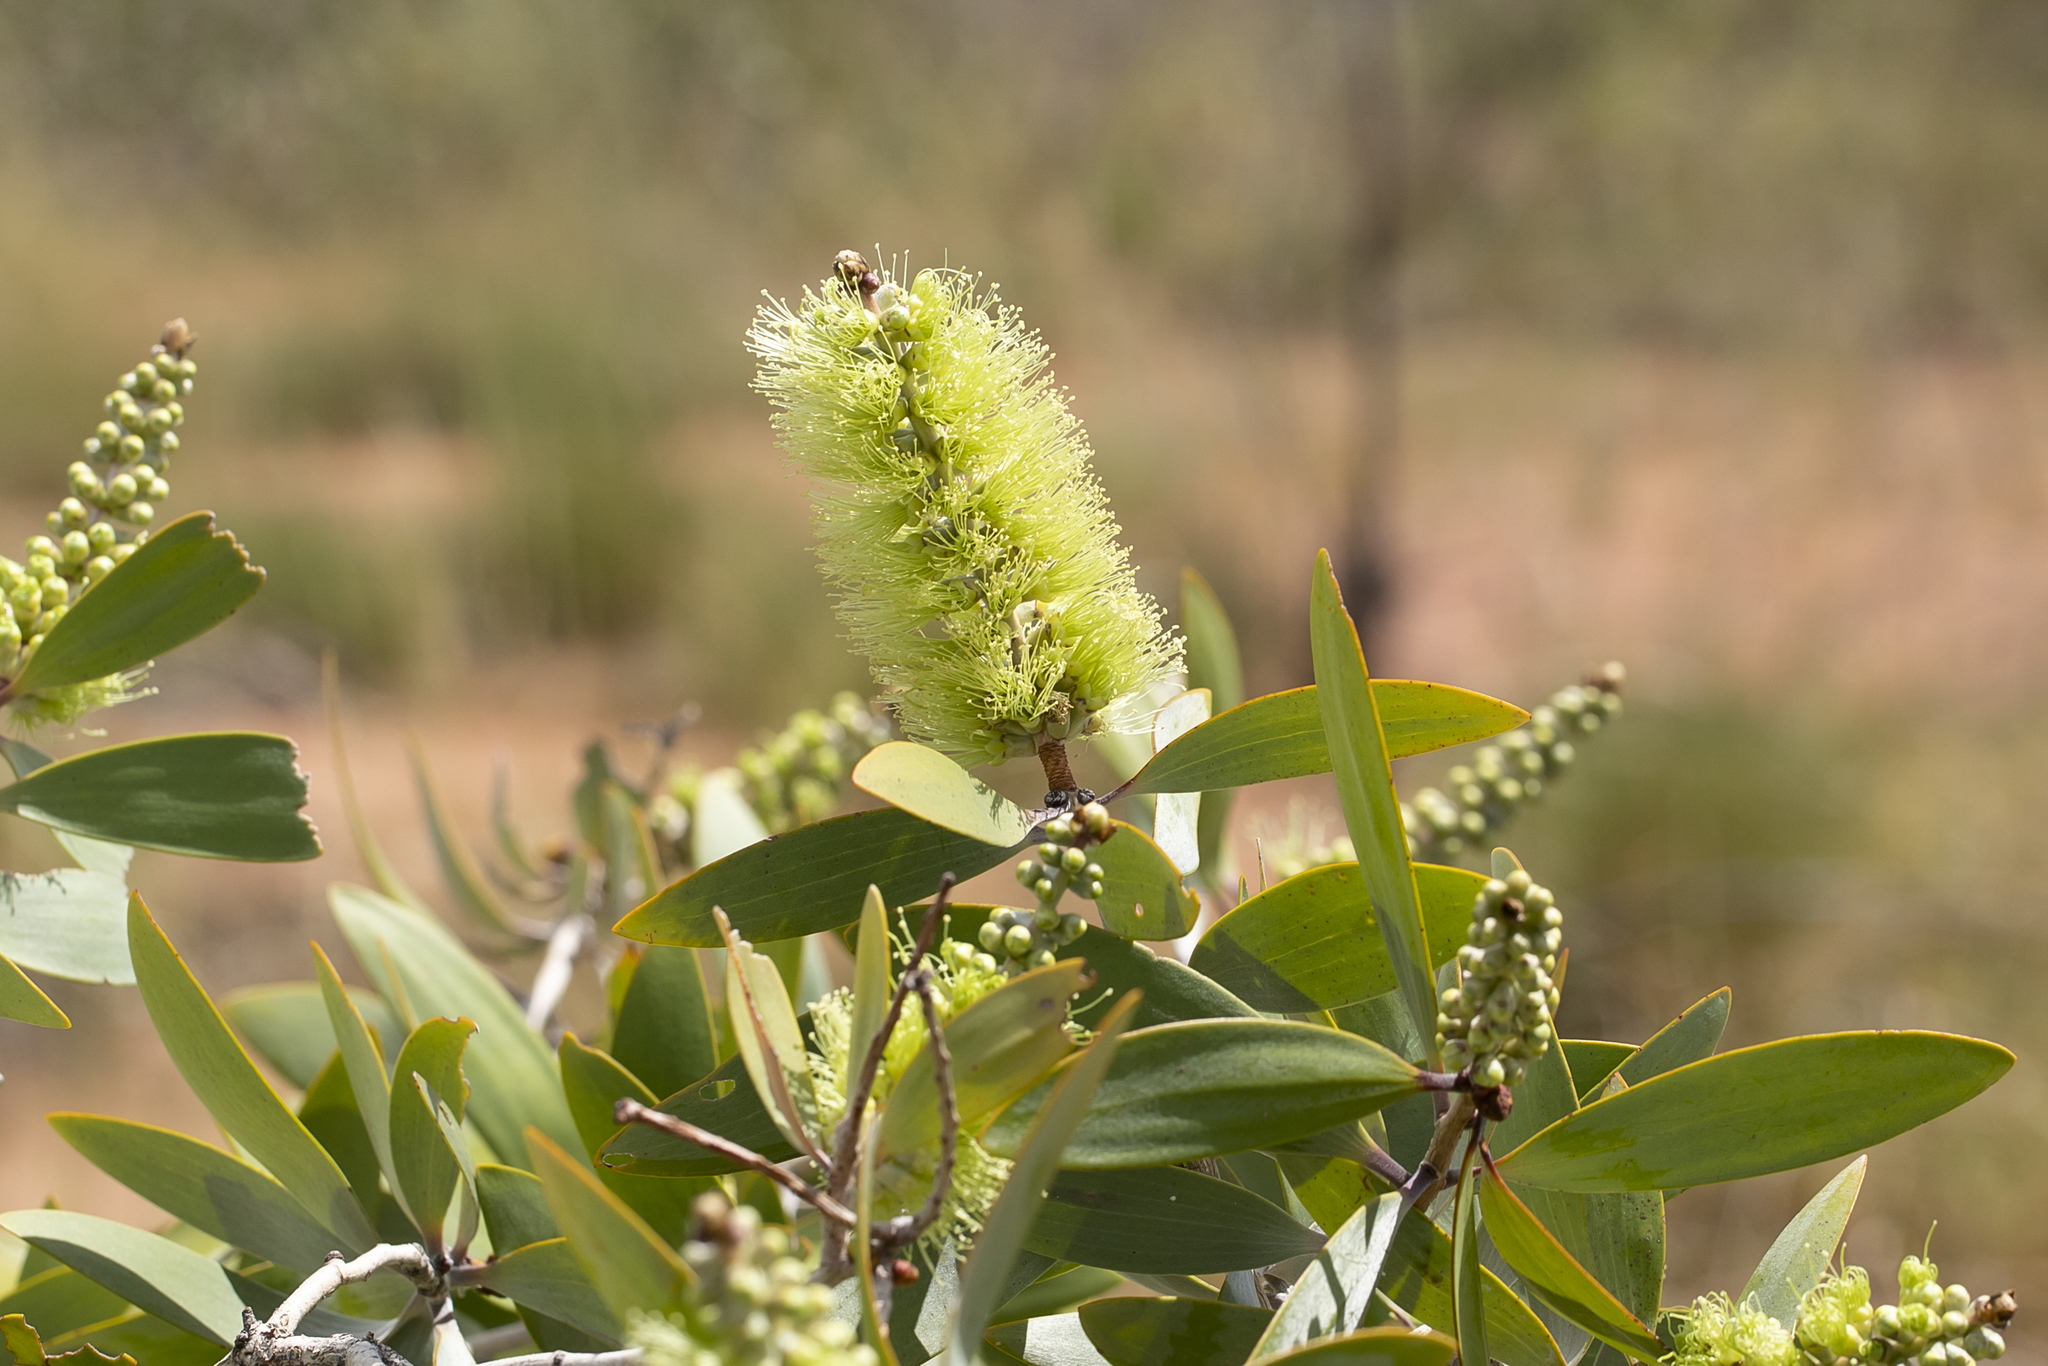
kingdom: Plantae
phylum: Tracheophyta
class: Magnoliopsida
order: Myrtales
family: Myrtaceae
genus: Melaleuca
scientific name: Melaleuca nervosa
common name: Fibrebark
